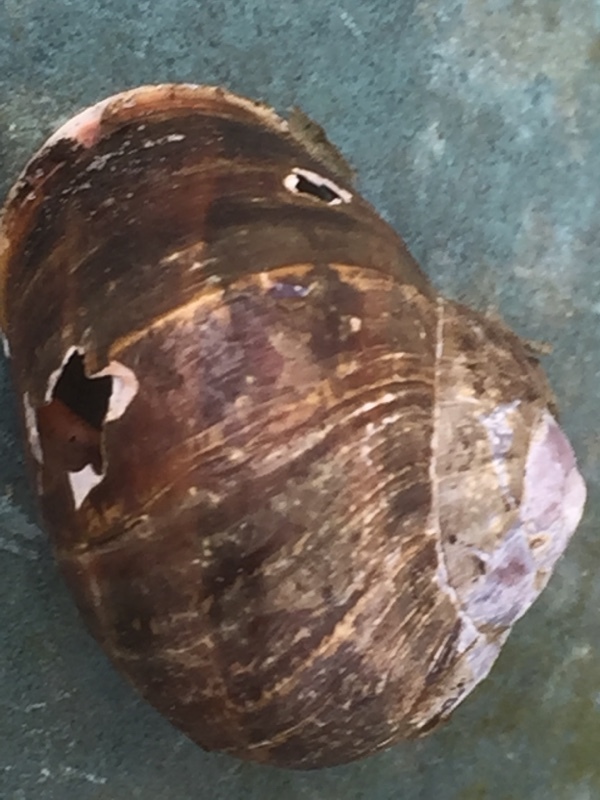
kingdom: Animalia
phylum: Mollusca
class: Gastropoda
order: Stylommatophora
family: Helicidae
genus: Cornu
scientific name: Cornu aspersum
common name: Brown garden snail
